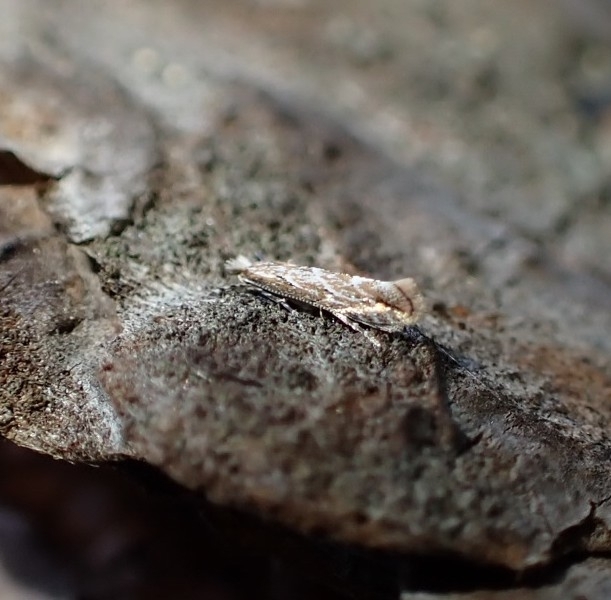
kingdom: Animalia
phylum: Arthropoda
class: Insecta
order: Lepidoptera
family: Gracillariidae
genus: Phyllonorycter
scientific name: Phyllonorycter issikii
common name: Linden midget
